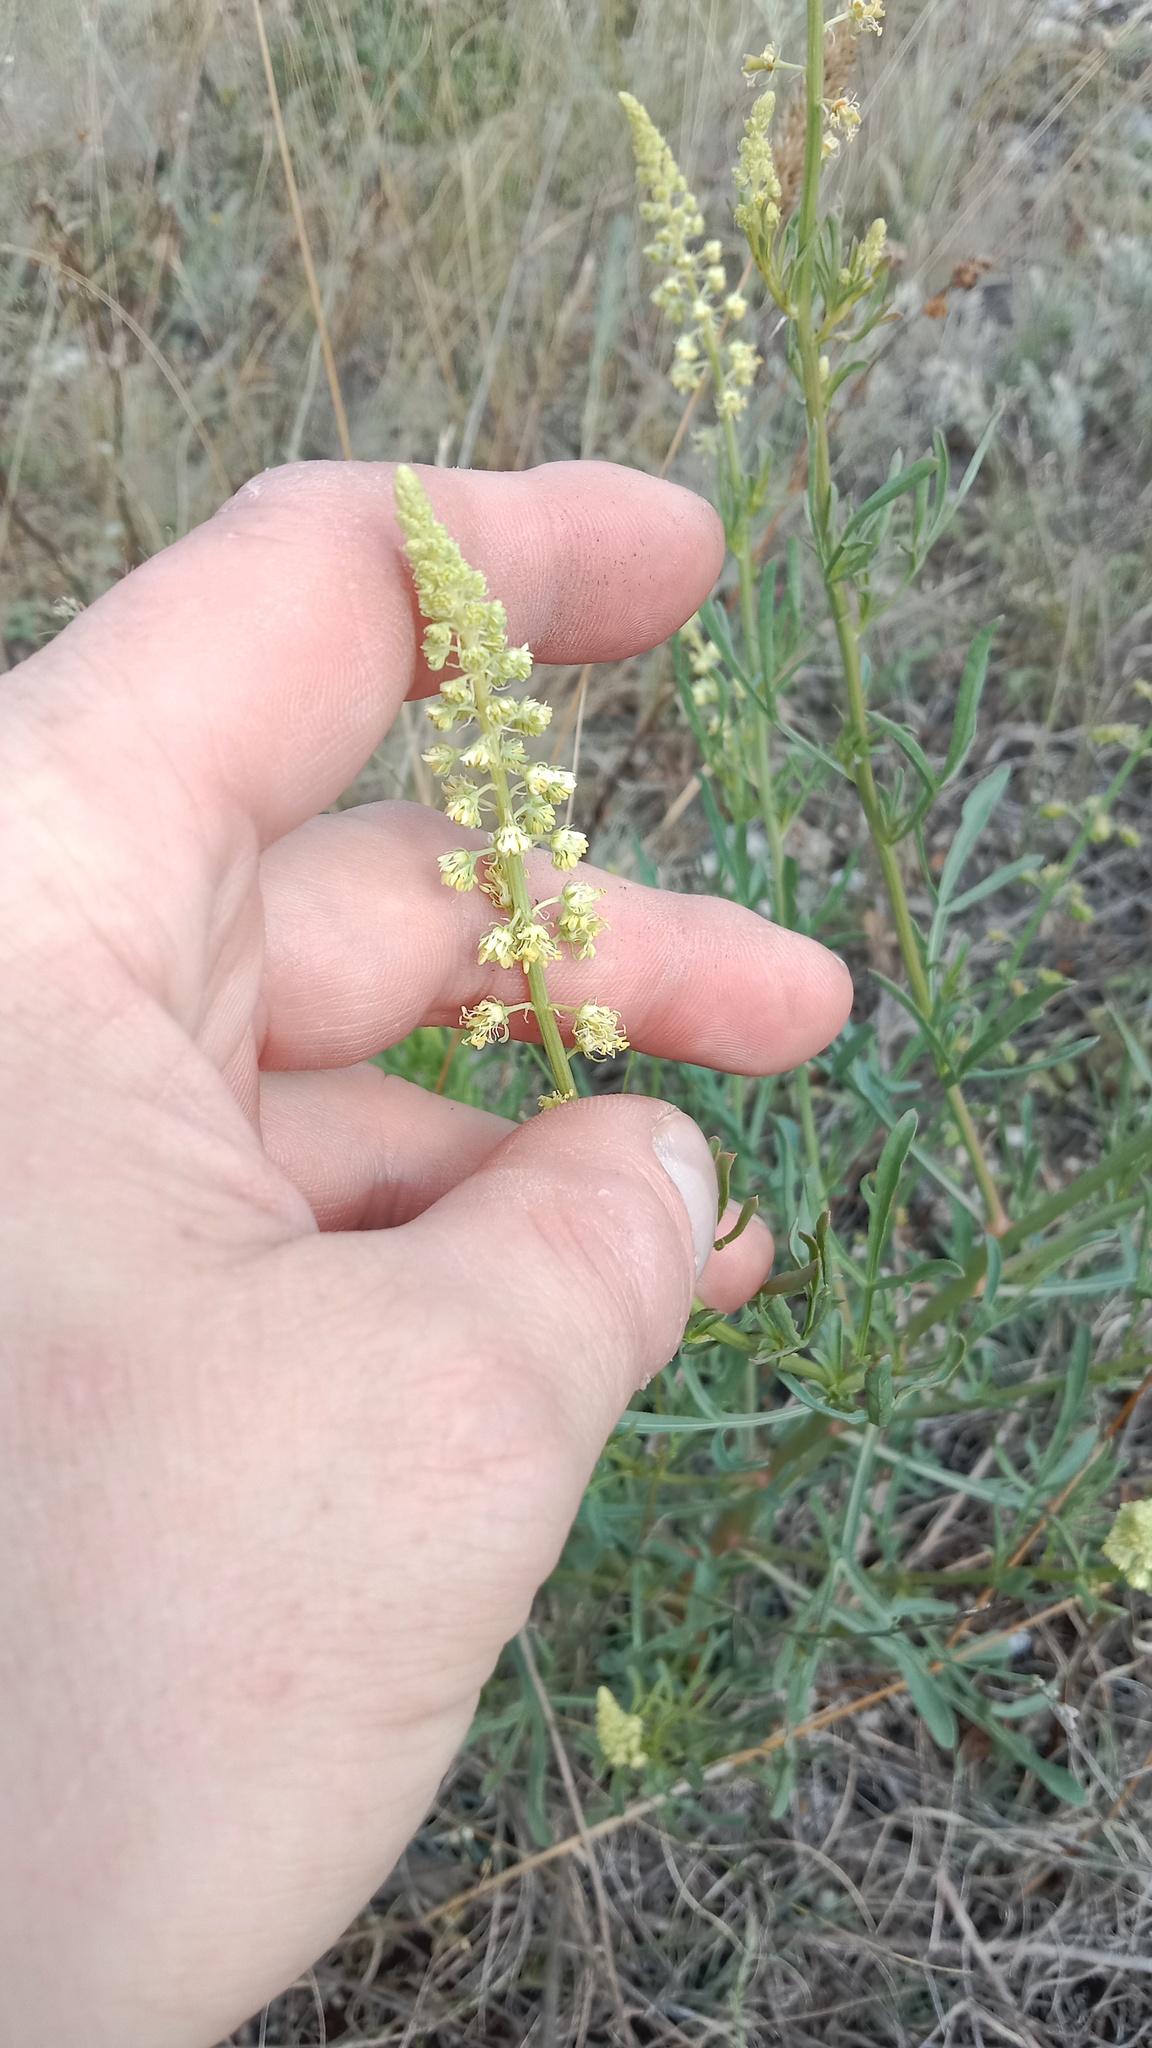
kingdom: Plantae
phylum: Tracheophyta
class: Magnoliopsida
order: Brassicales
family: Resedaceae
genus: Reseda
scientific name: Reseda lutea
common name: Wild mignonette
